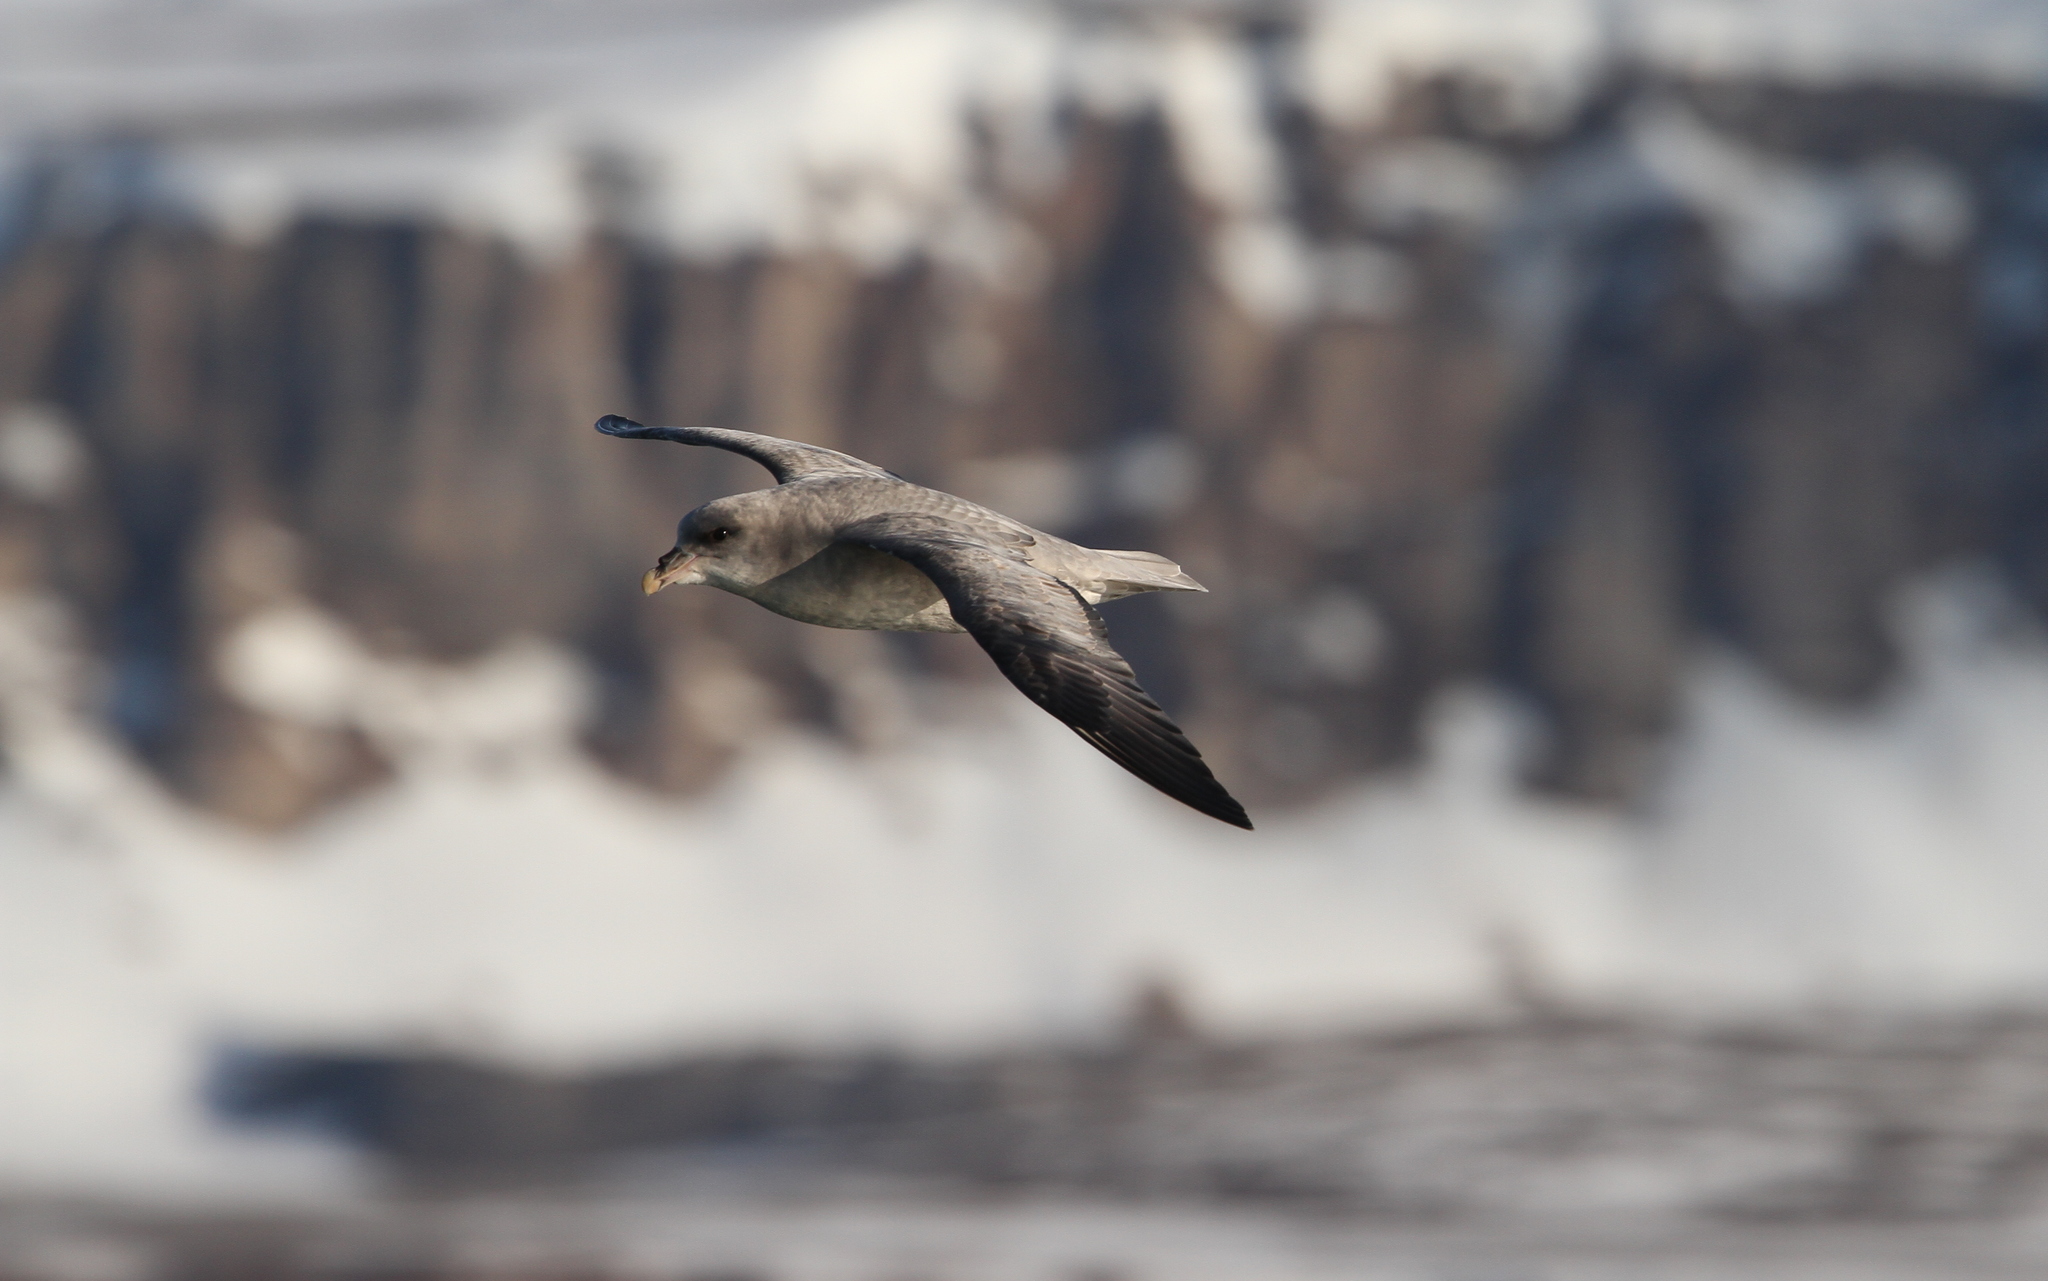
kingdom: Animalia
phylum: Chordata
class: Aves
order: Procellariiformes
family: Procellariidae
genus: Fulmarus
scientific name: Fulmarus glacialis
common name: Northern fulmar
